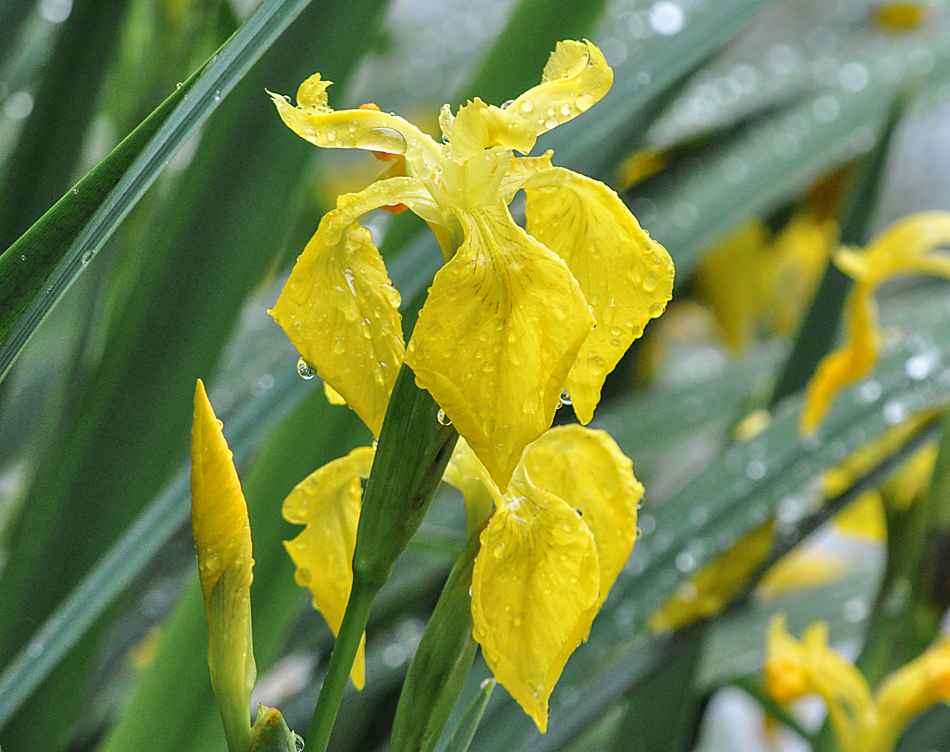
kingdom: Plantae
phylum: Tracheophyta
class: Liliopsida
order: Asparagales
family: Iridaceae
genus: Iris
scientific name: Iris pseudacorus
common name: Yellow flag
